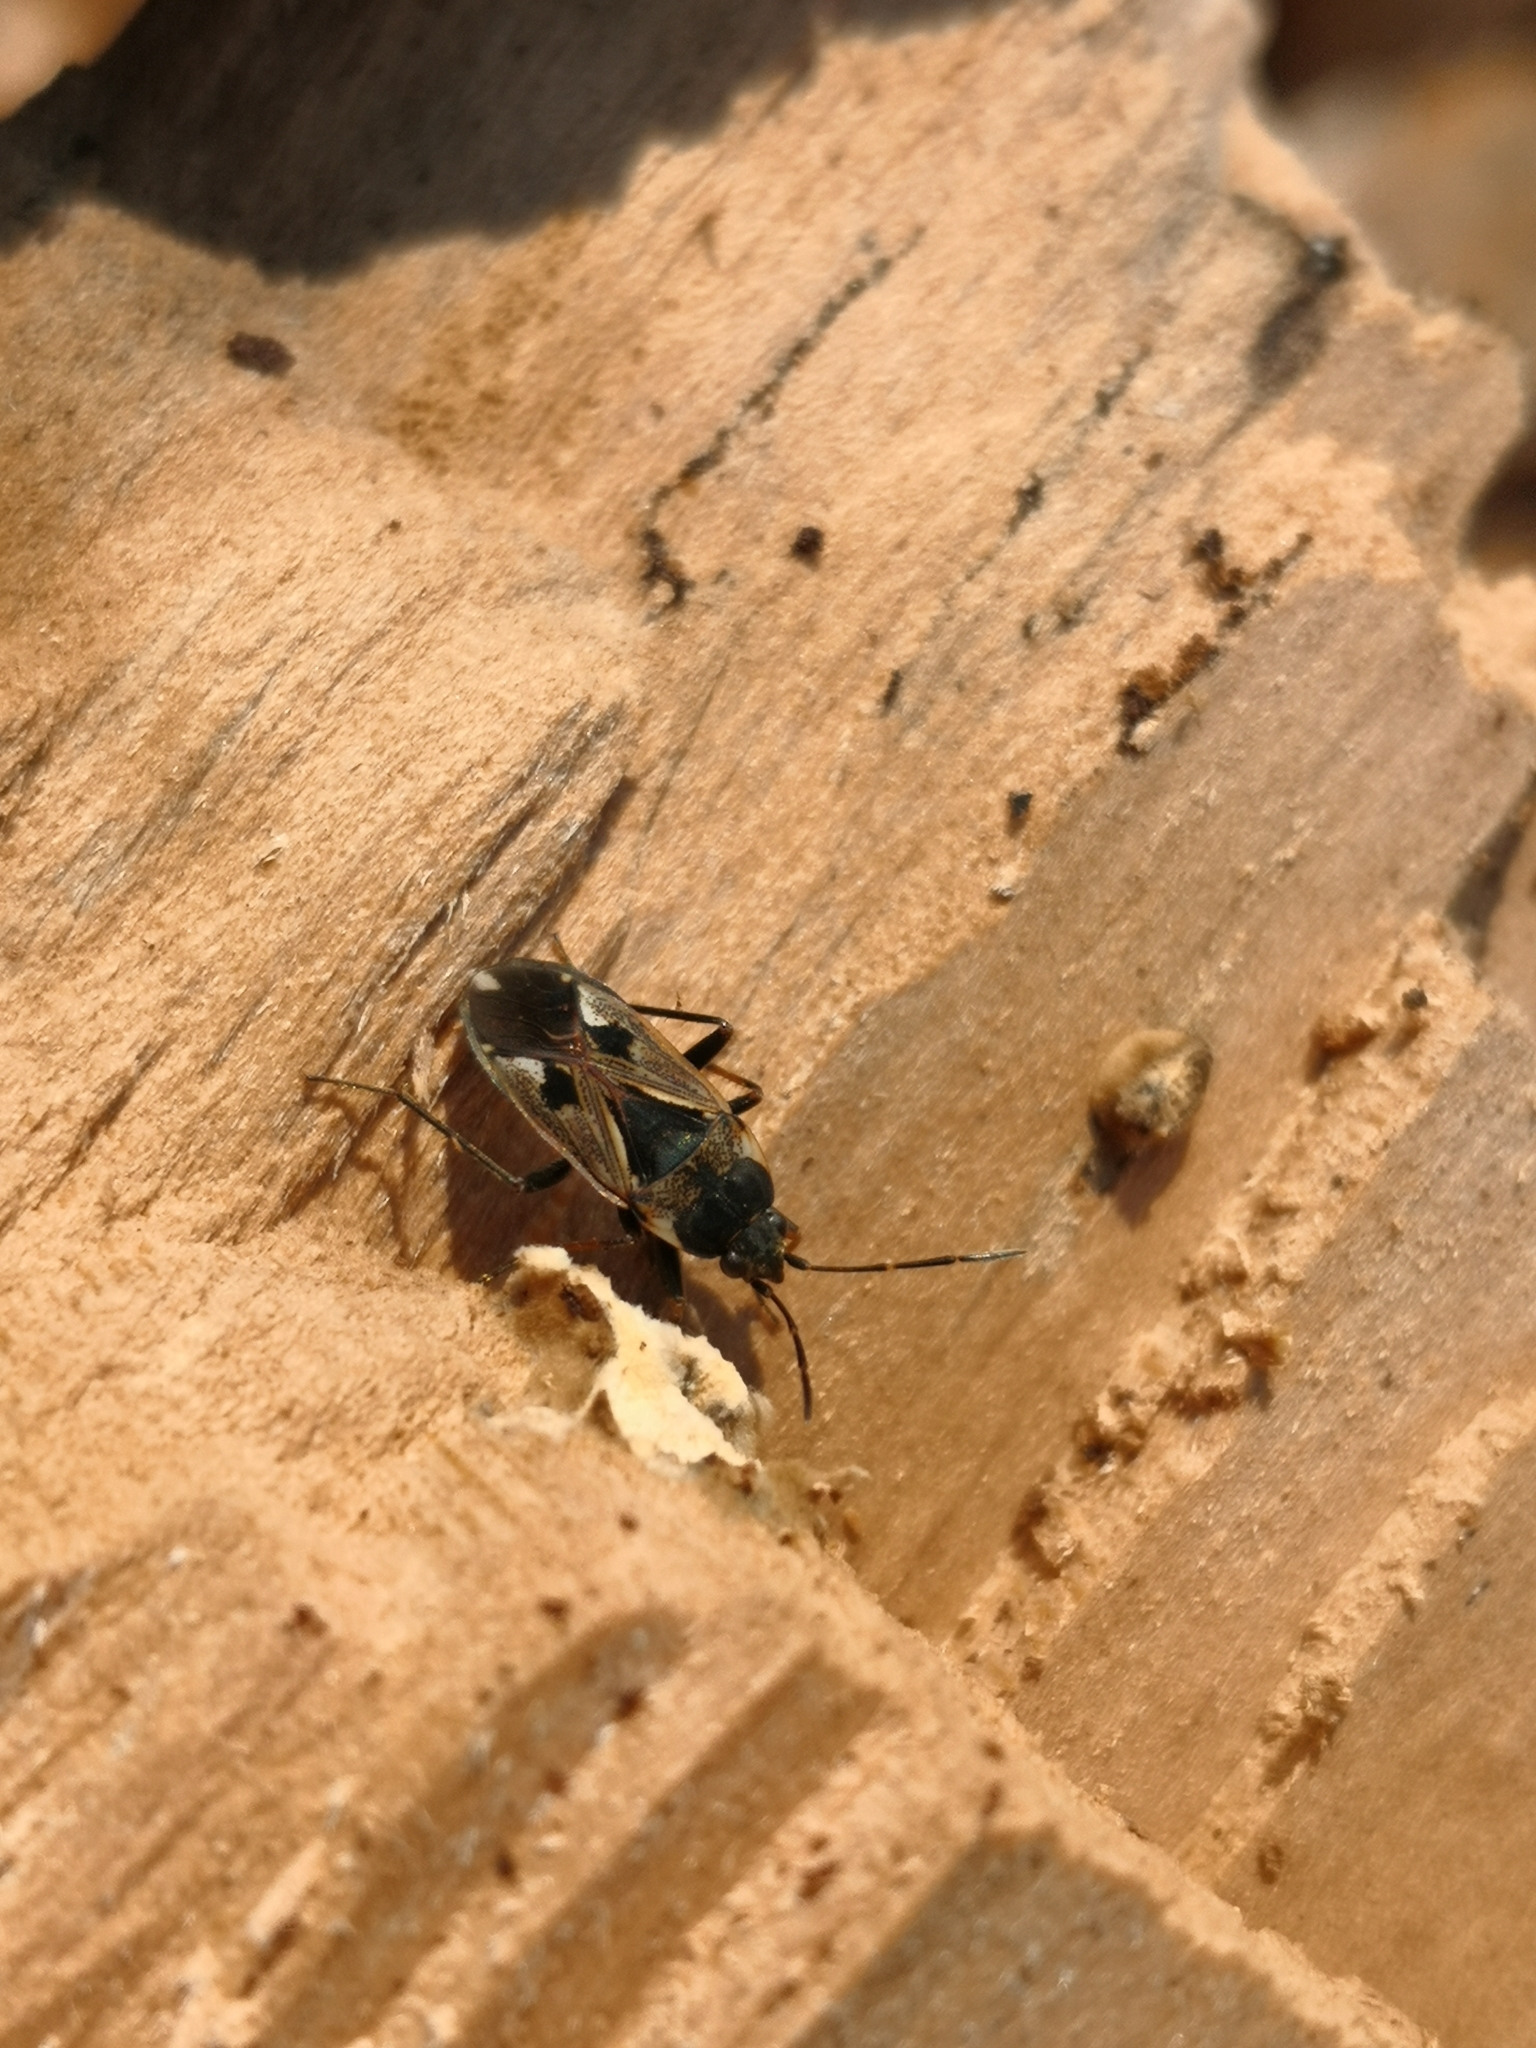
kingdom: Animalia
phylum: Arthropoda
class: Insecta
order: Hemiptera
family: Rhyparochromidae
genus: Rhyparochromus
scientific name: Rhyparochromus vulgaris
